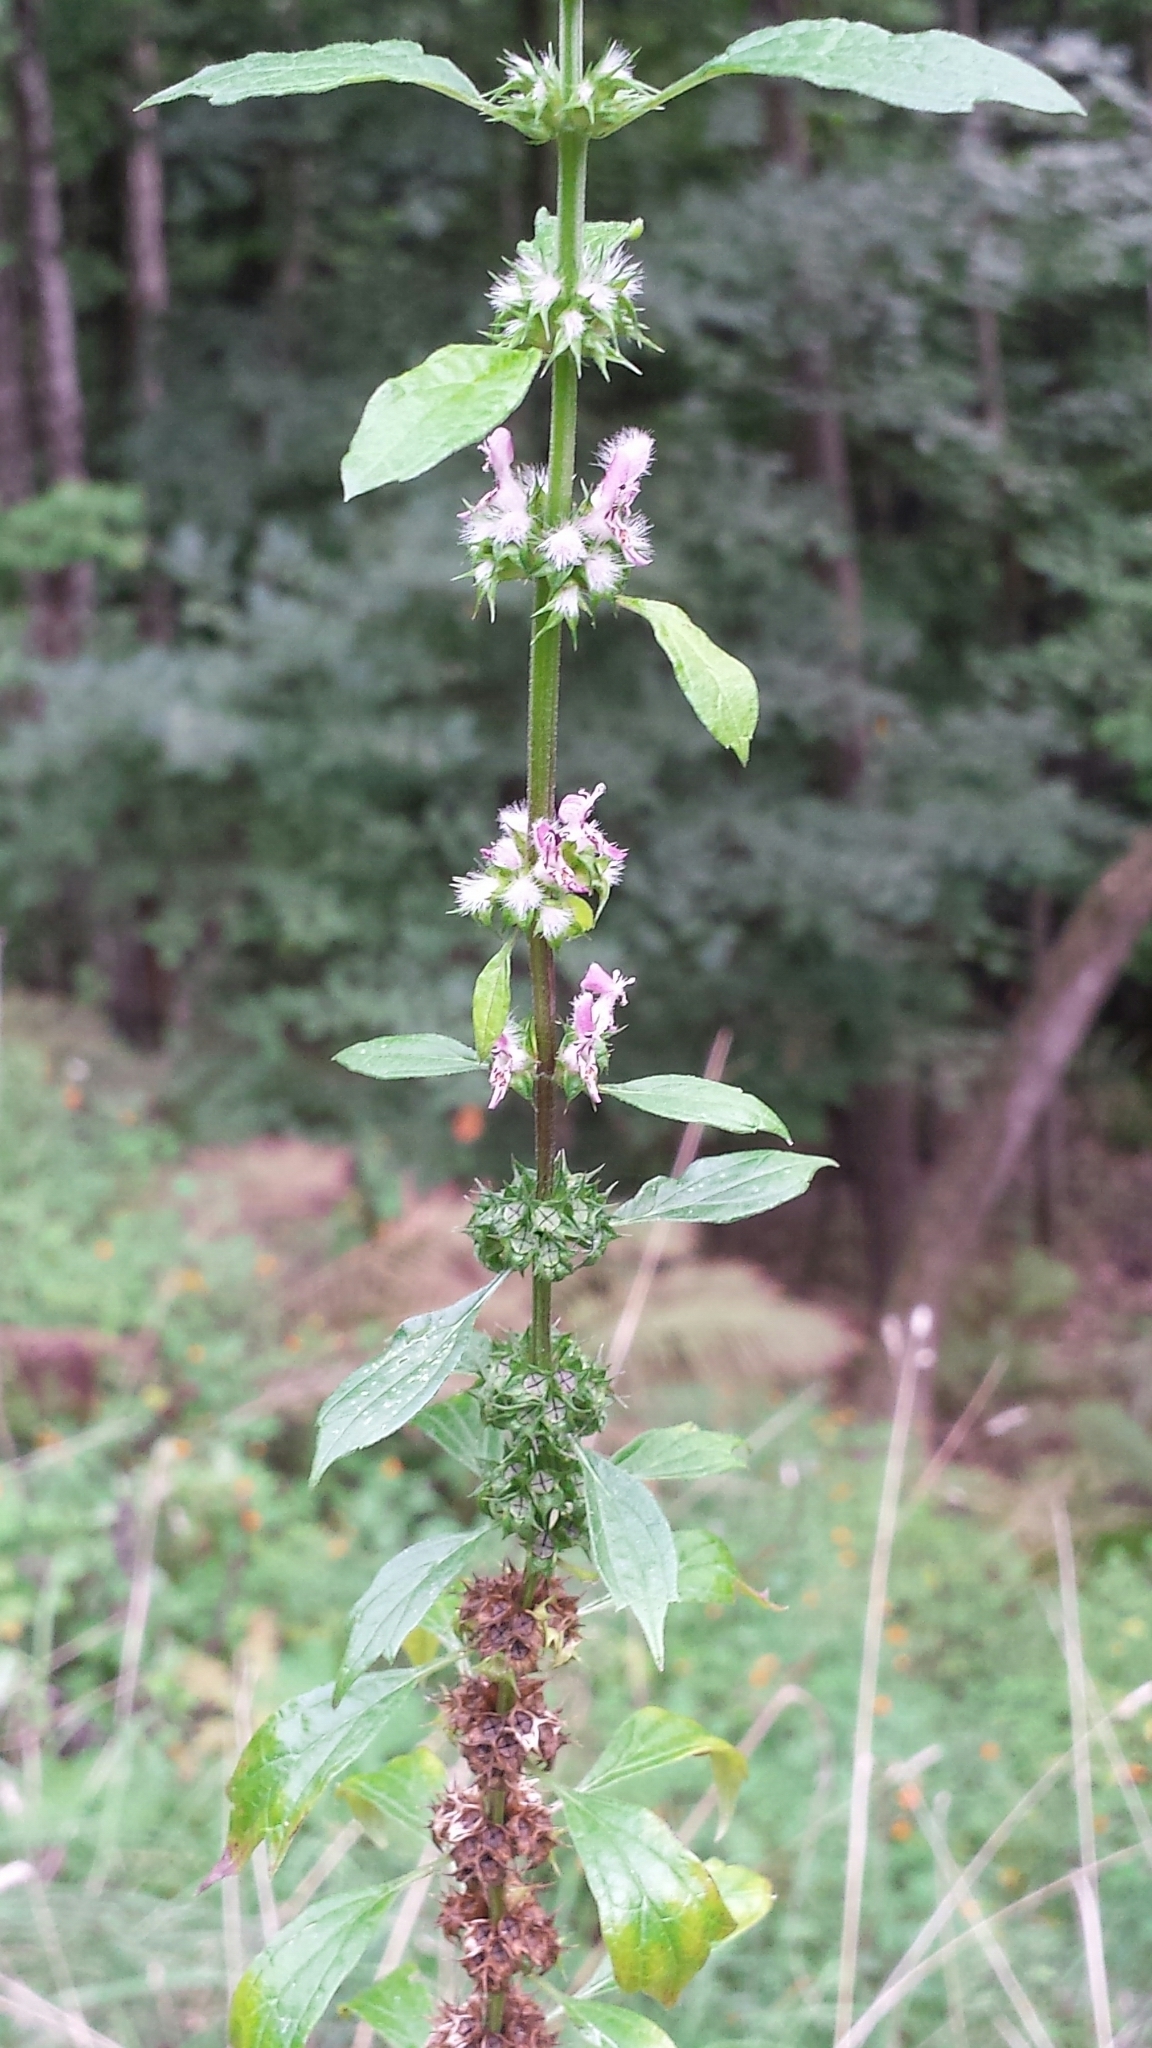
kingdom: Plantae
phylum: Tracheophyta
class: Magnoliopsida
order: Lamiales
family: Lamiaceae
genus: Leonurus
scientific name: Leonurus cardiaca
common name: Motherwort
